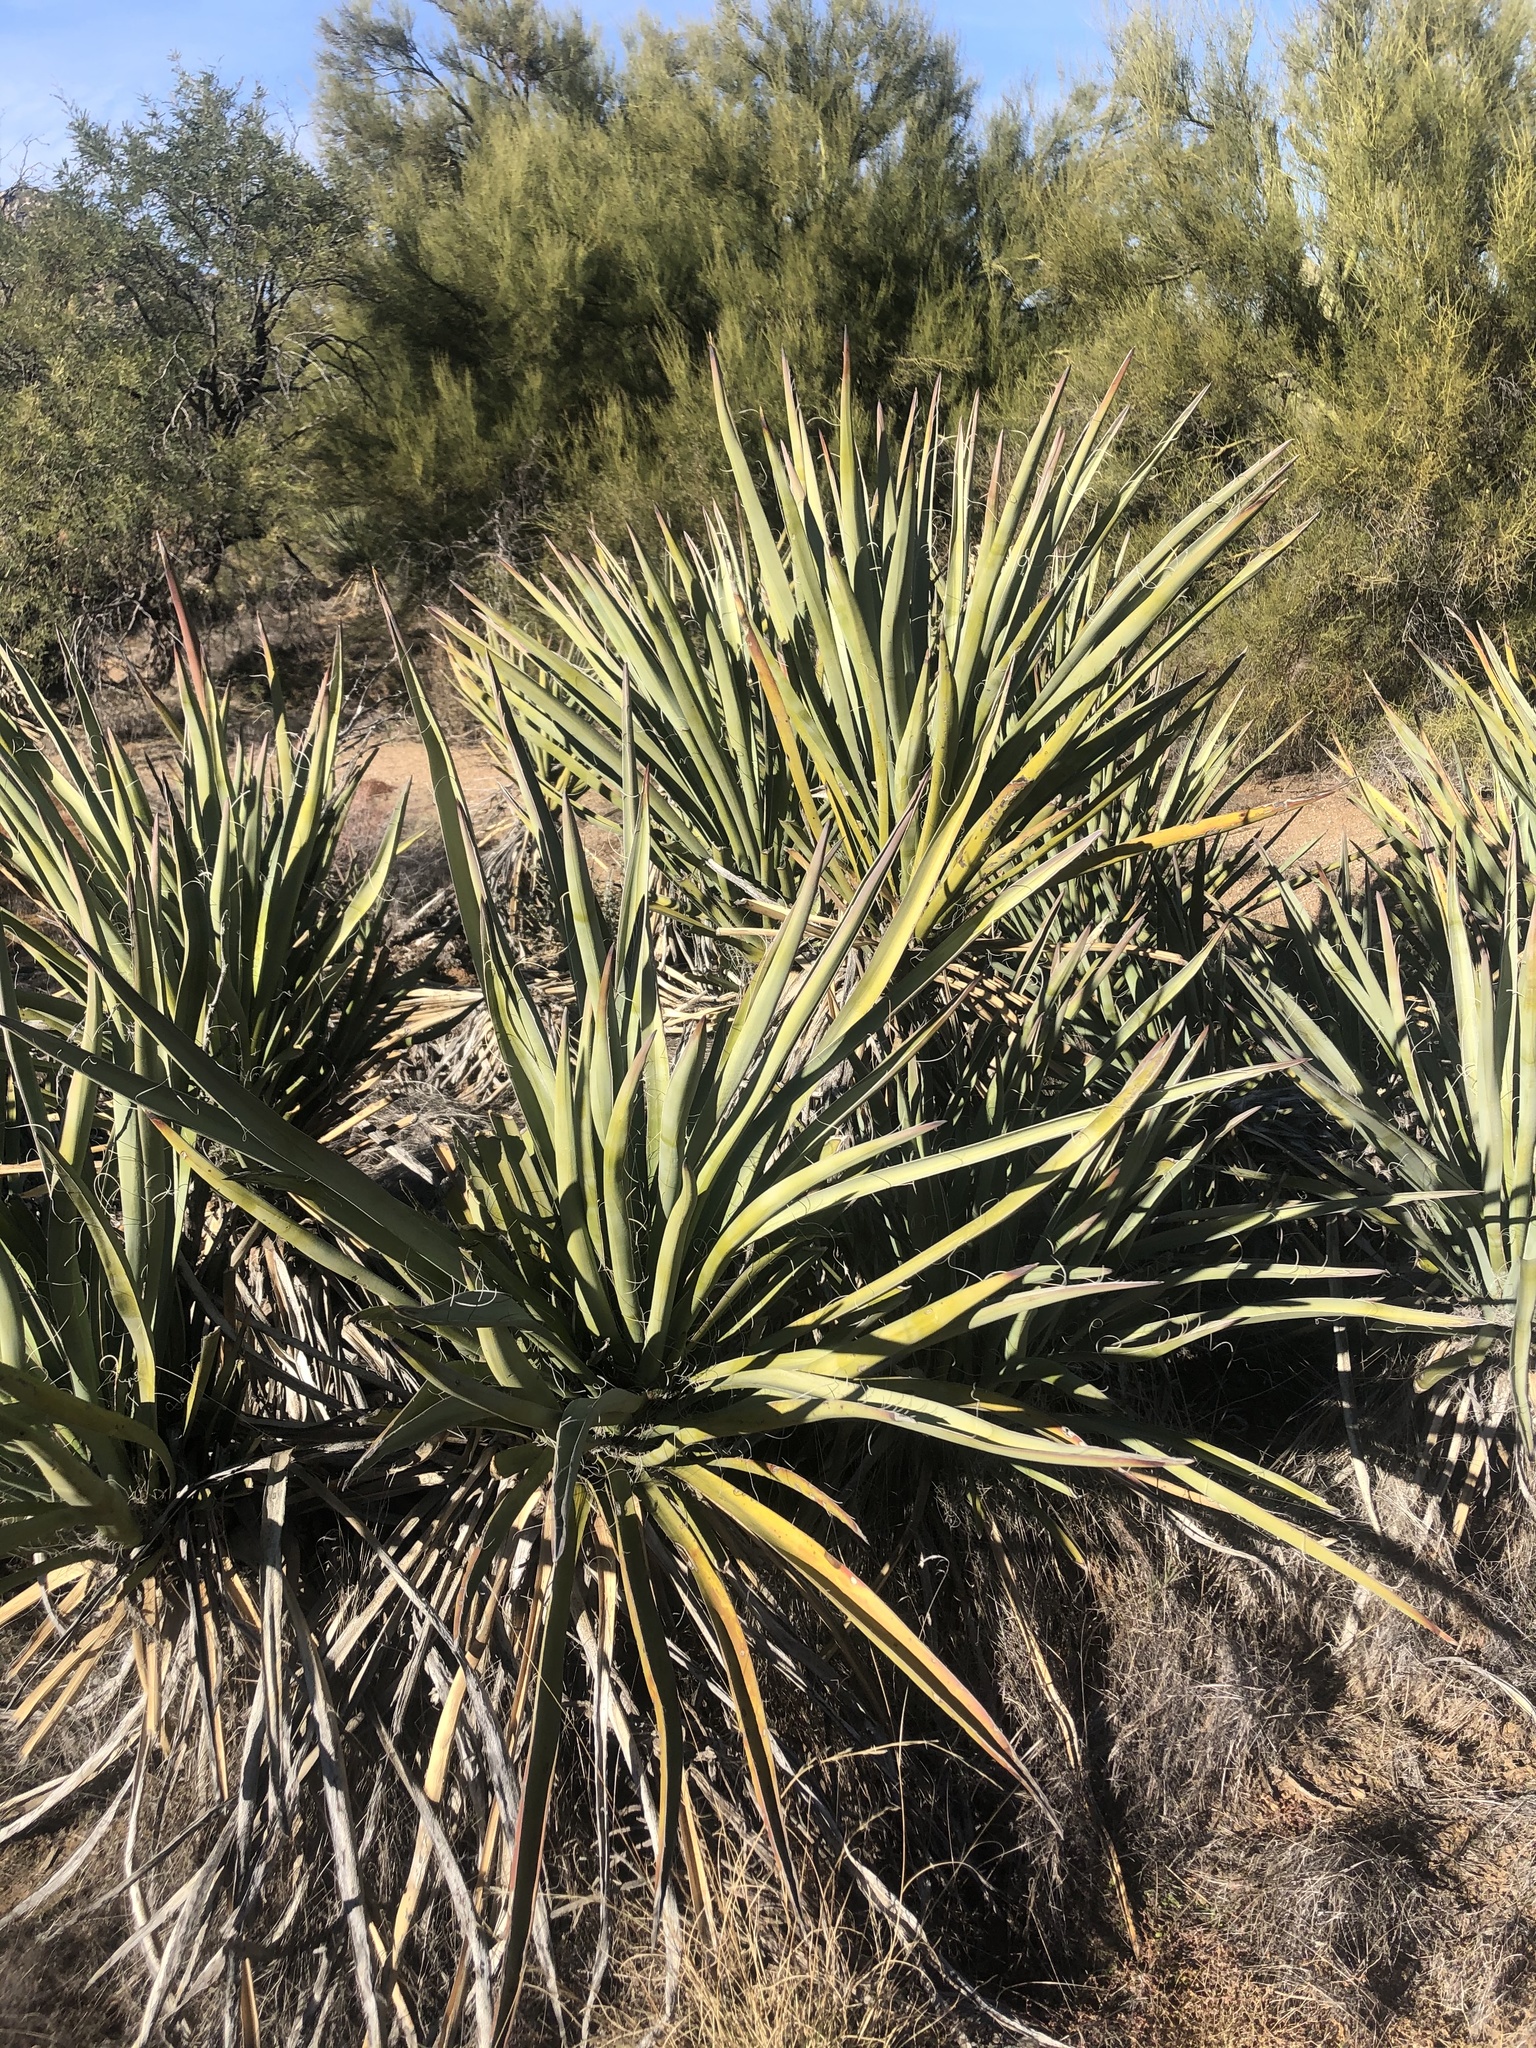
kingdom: Plantae
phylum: Tracheophyta
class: Liliopsida
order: Asparagales
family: Asparagaceae
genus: Yucca
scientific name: Yucca baccata
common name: Banana yucca
